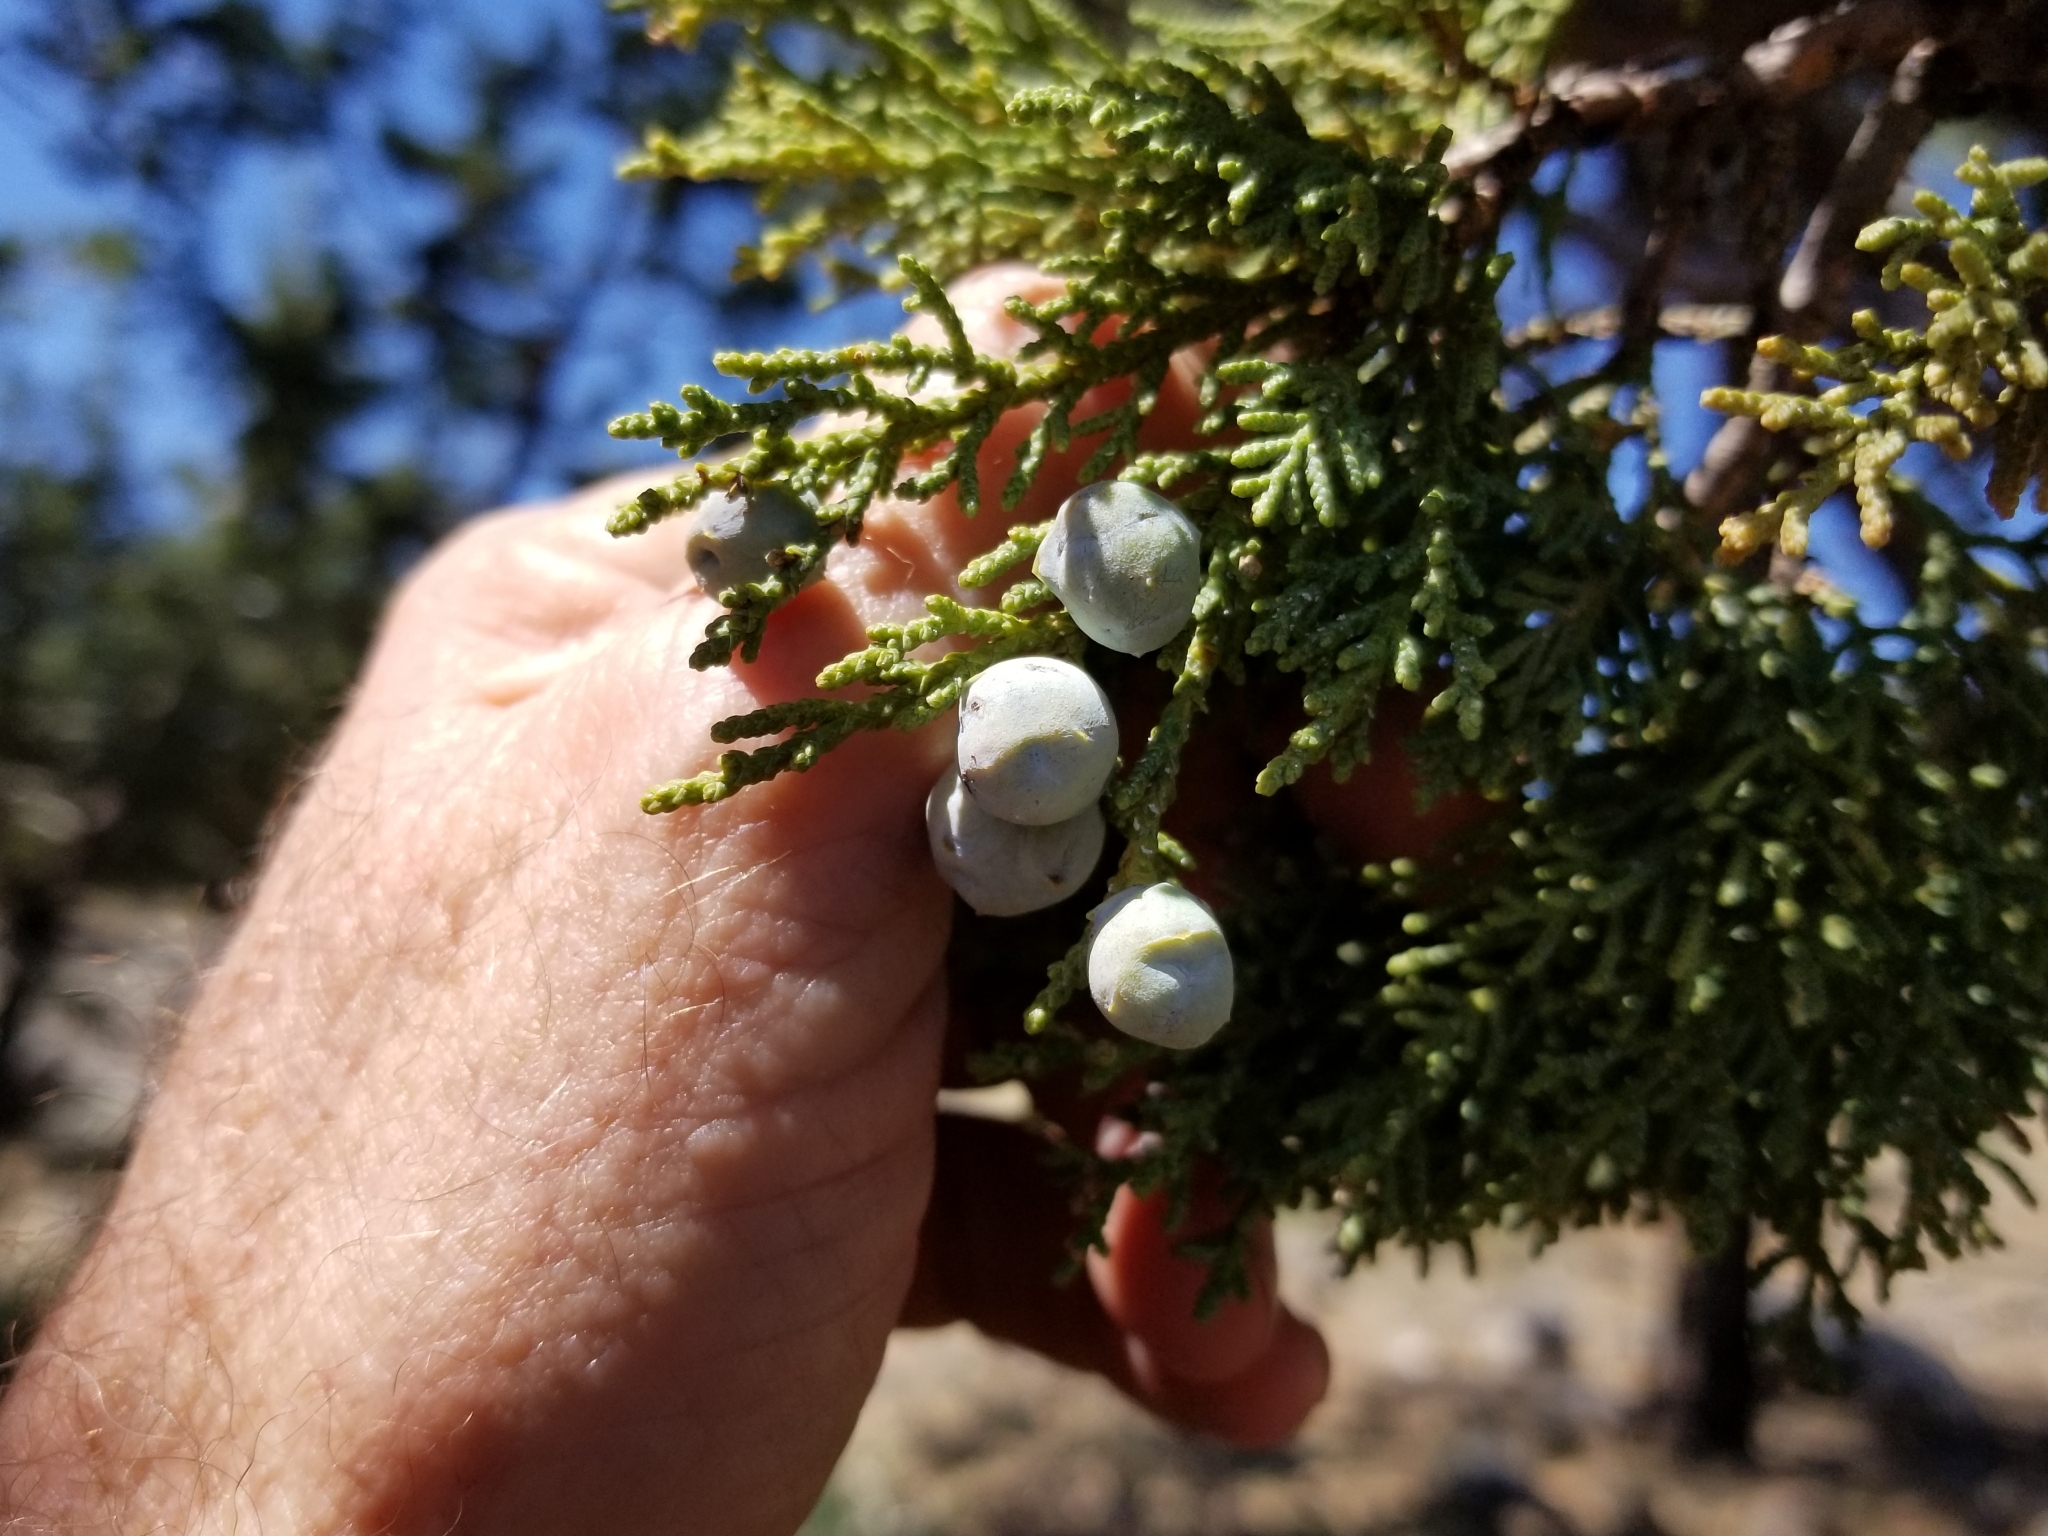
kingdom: Plantae
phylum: Tracheophyta
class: Pinopsida
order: Pinales
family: Cupressaceae
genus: Juniperus
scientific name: Juniperus deppeana
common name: Alligator juniper
